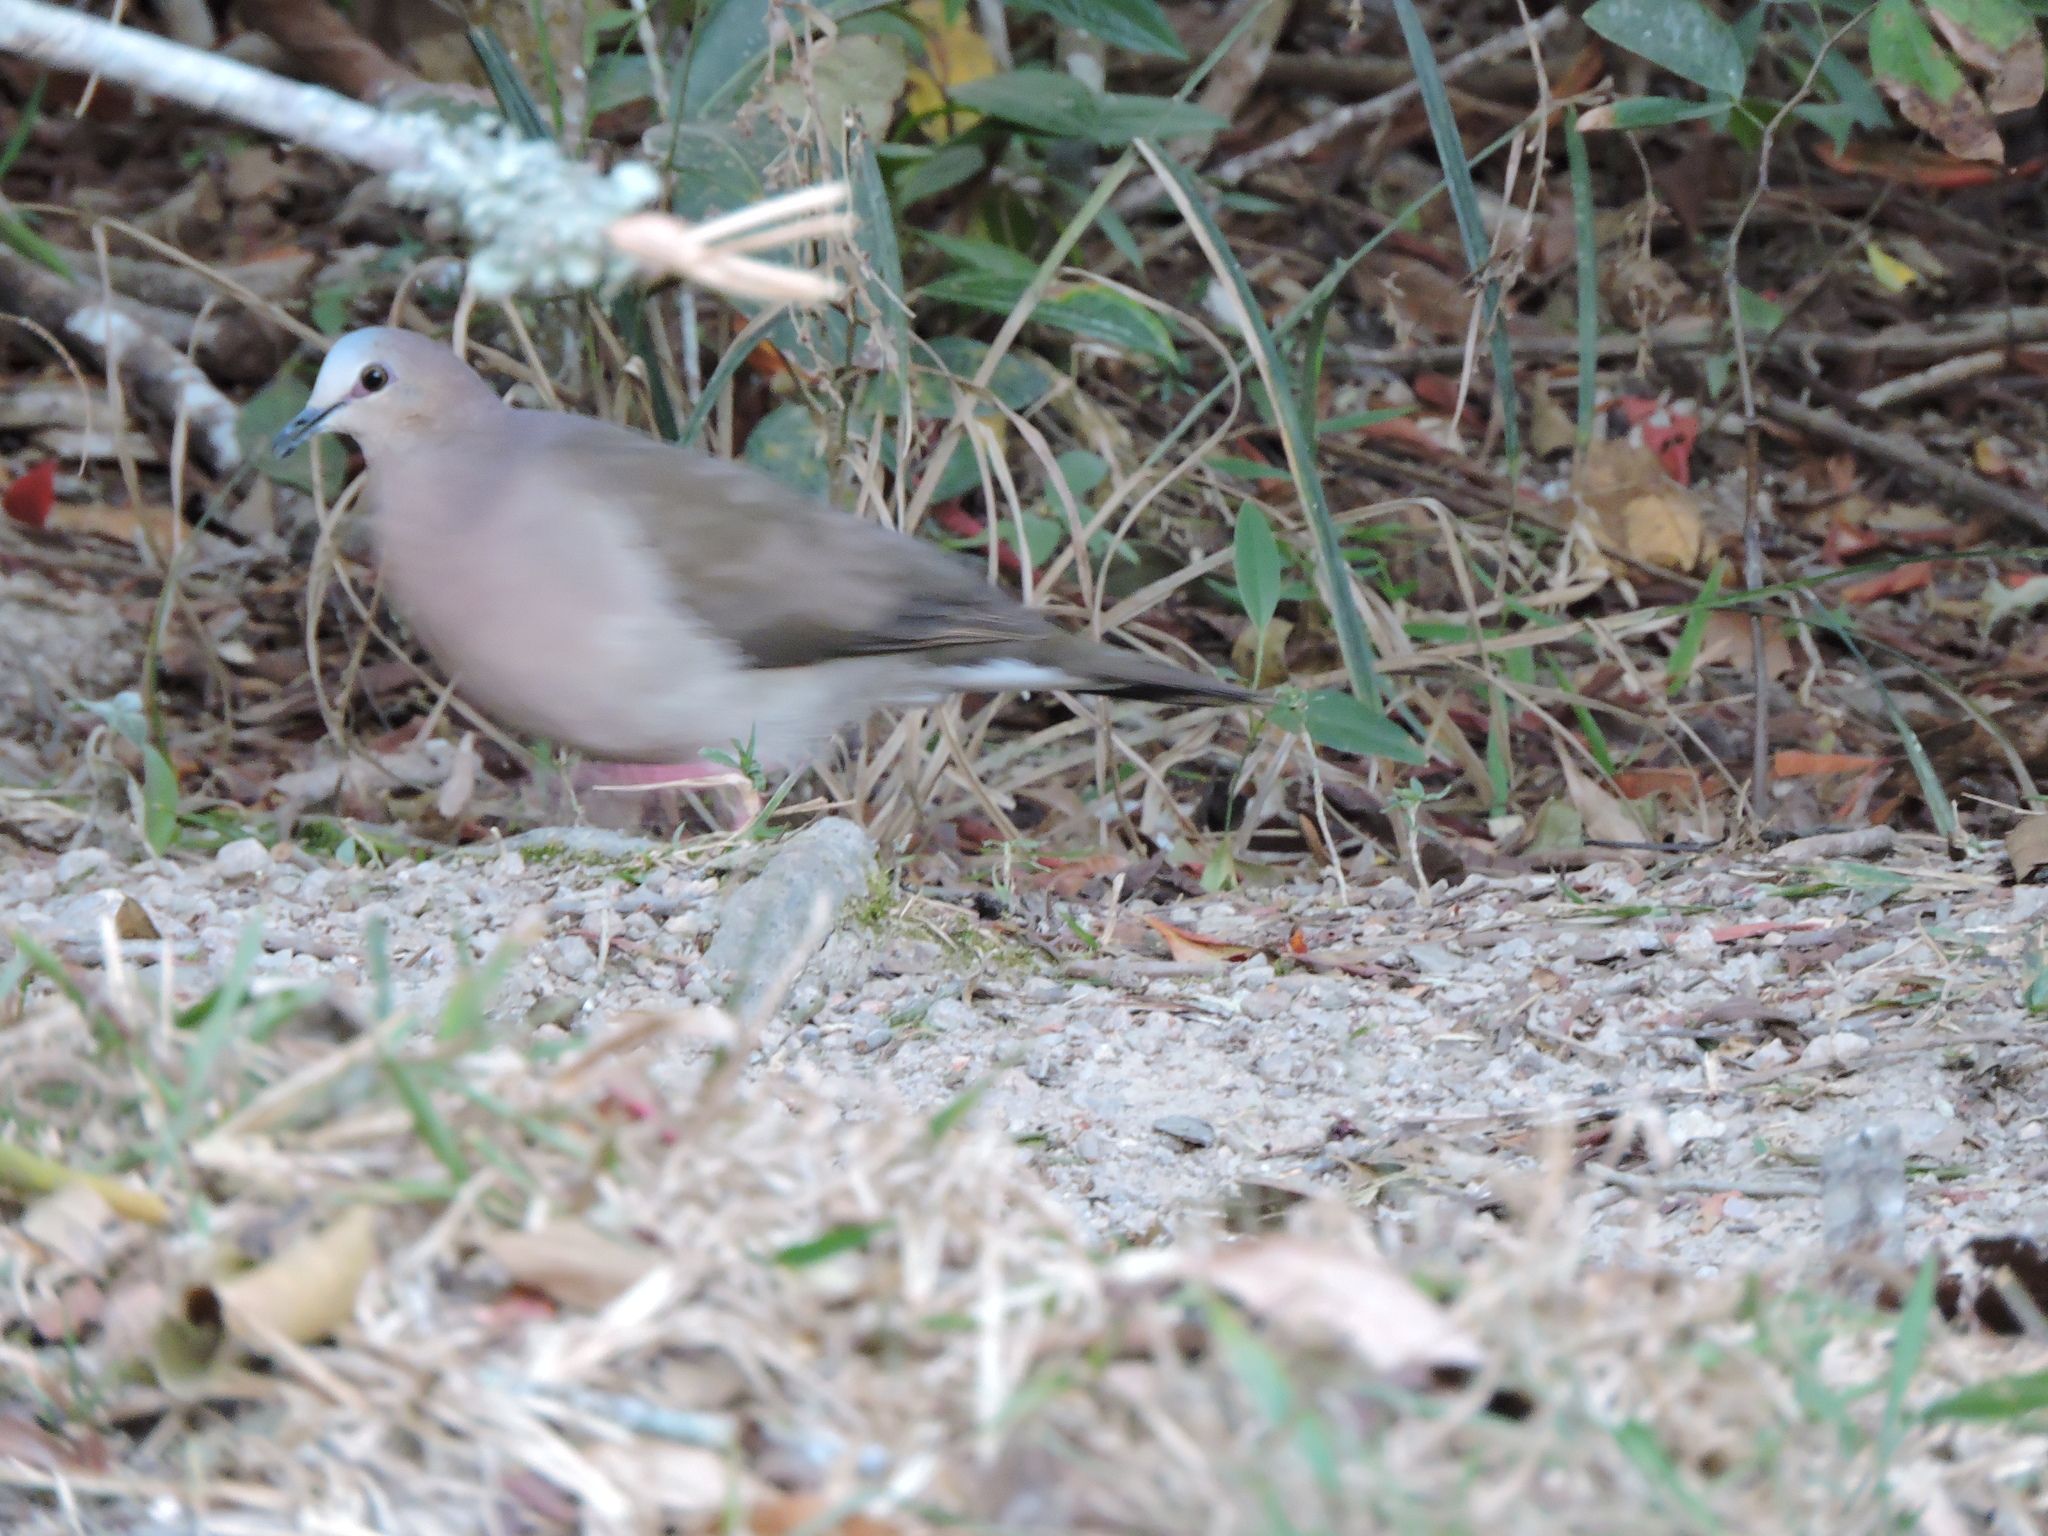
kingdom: Animalia
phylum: Chordata
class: Aves
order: Columbiformes
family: Columbidae
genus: Leptotila
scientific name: Leptotila verreauxi
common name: White-tipped dove
